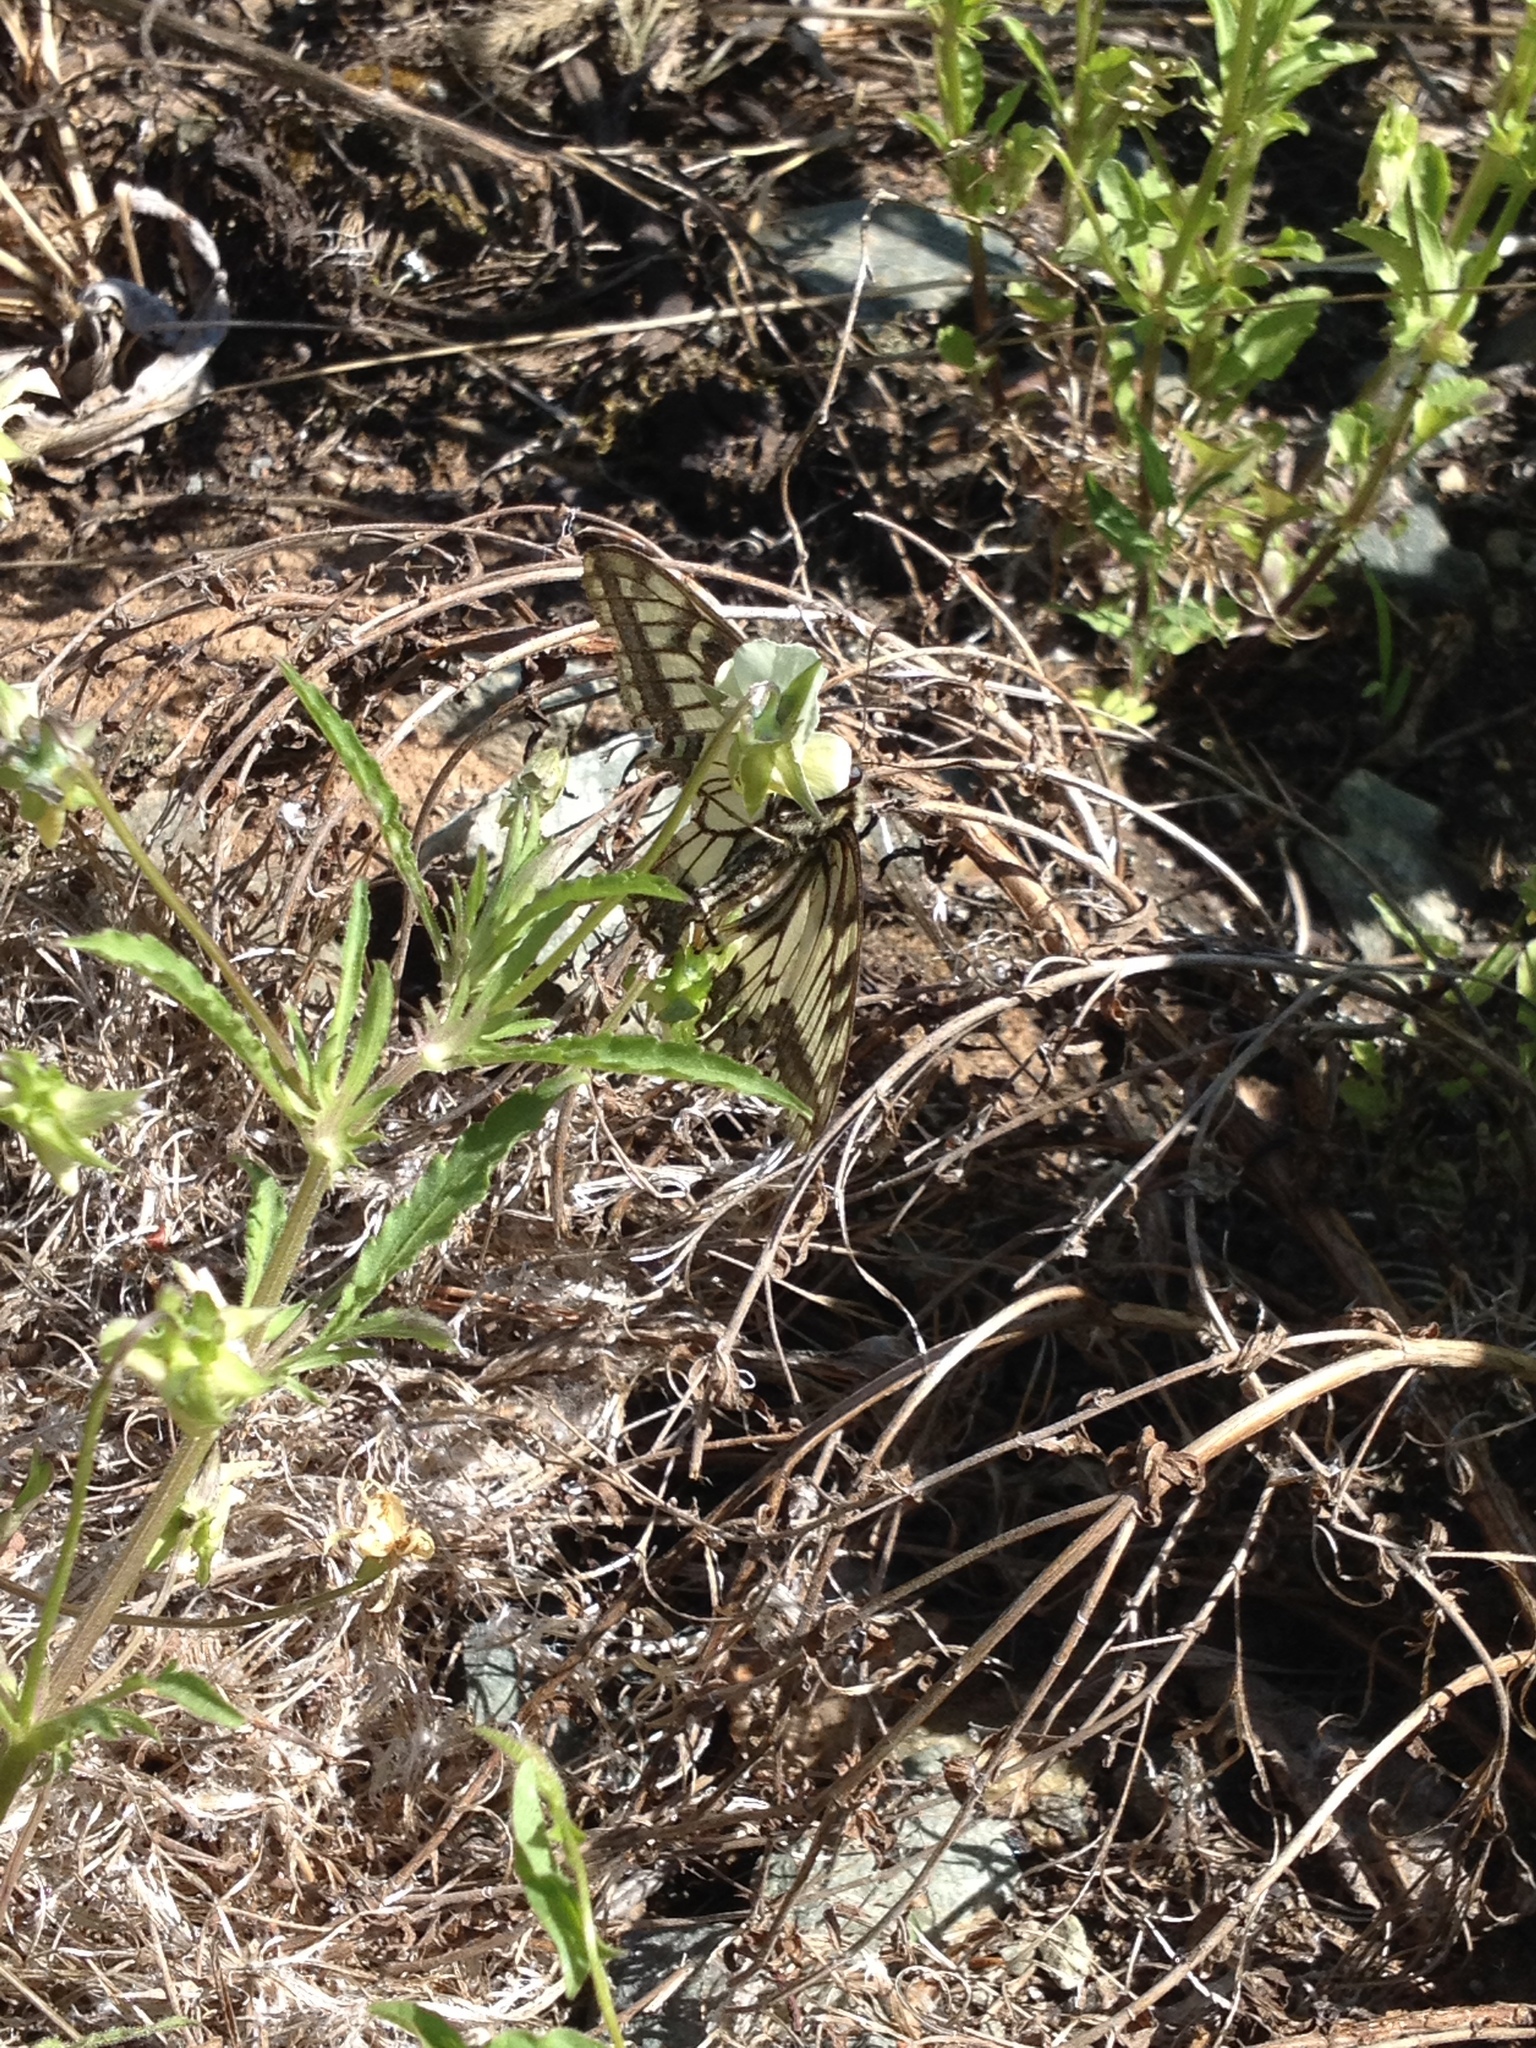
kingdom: Animalia
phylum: Arthropoda
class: Insecta
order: Lepidoptera
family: Papilionidae
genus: Papilio
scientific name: Papilio machaon
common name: Swallowtail
